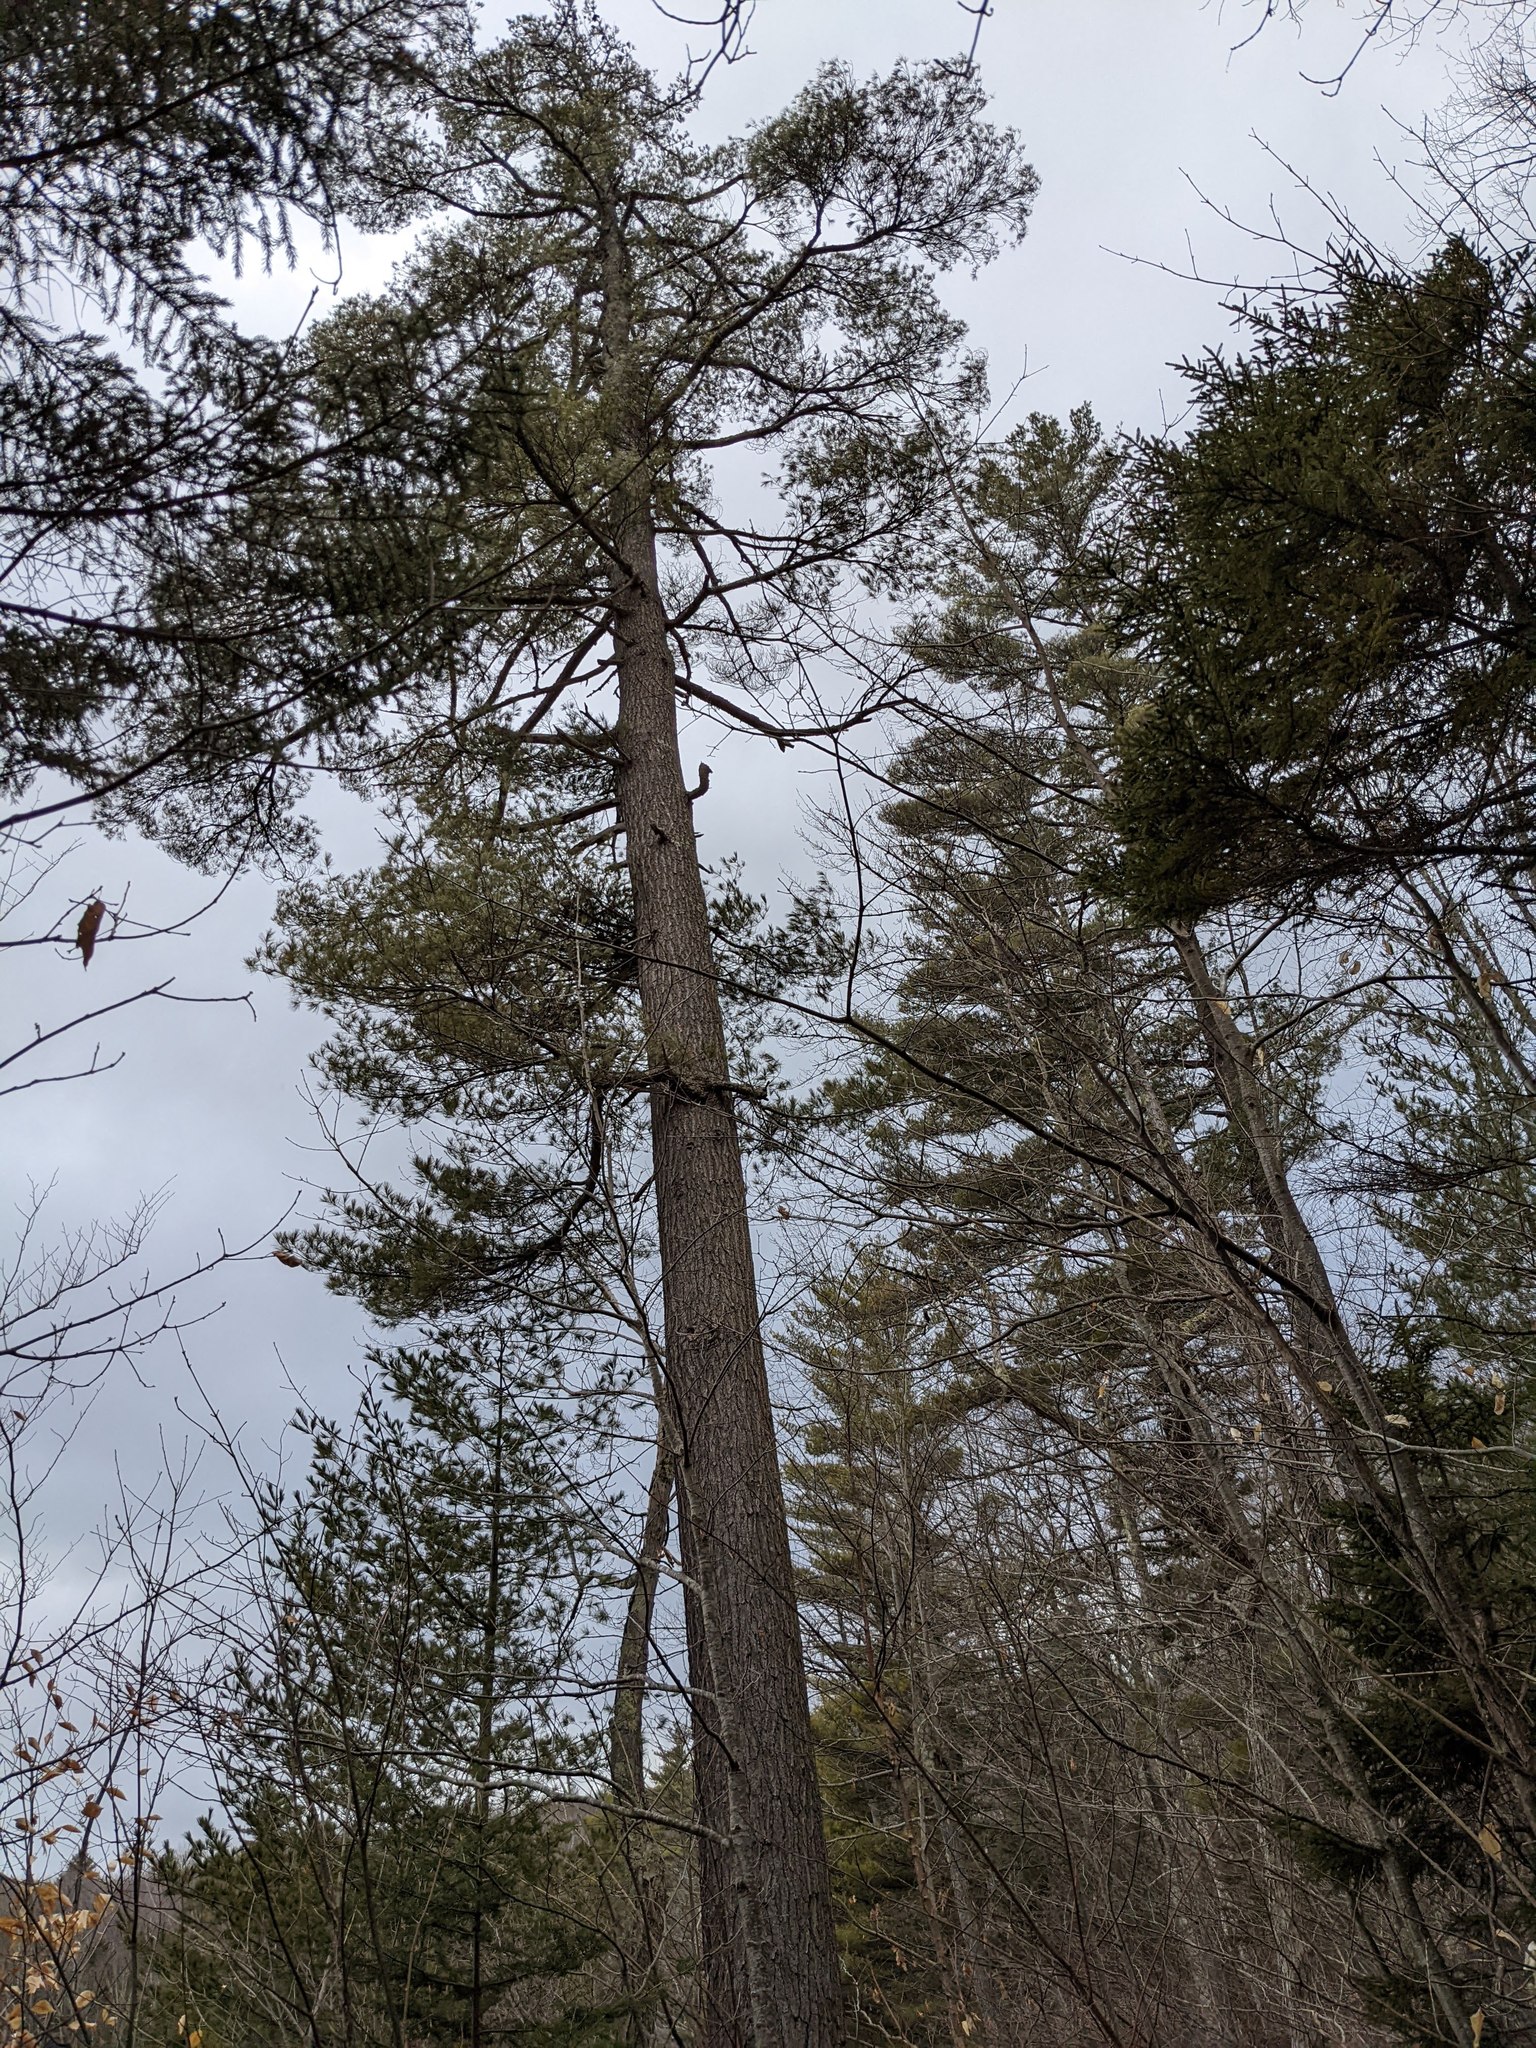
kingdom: Plantae
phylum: Tracheophyta
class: Pinopsida
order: Pinales
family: Pinaceae
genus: Pinus
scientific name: Pinus strobus
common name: Weymouth pine
